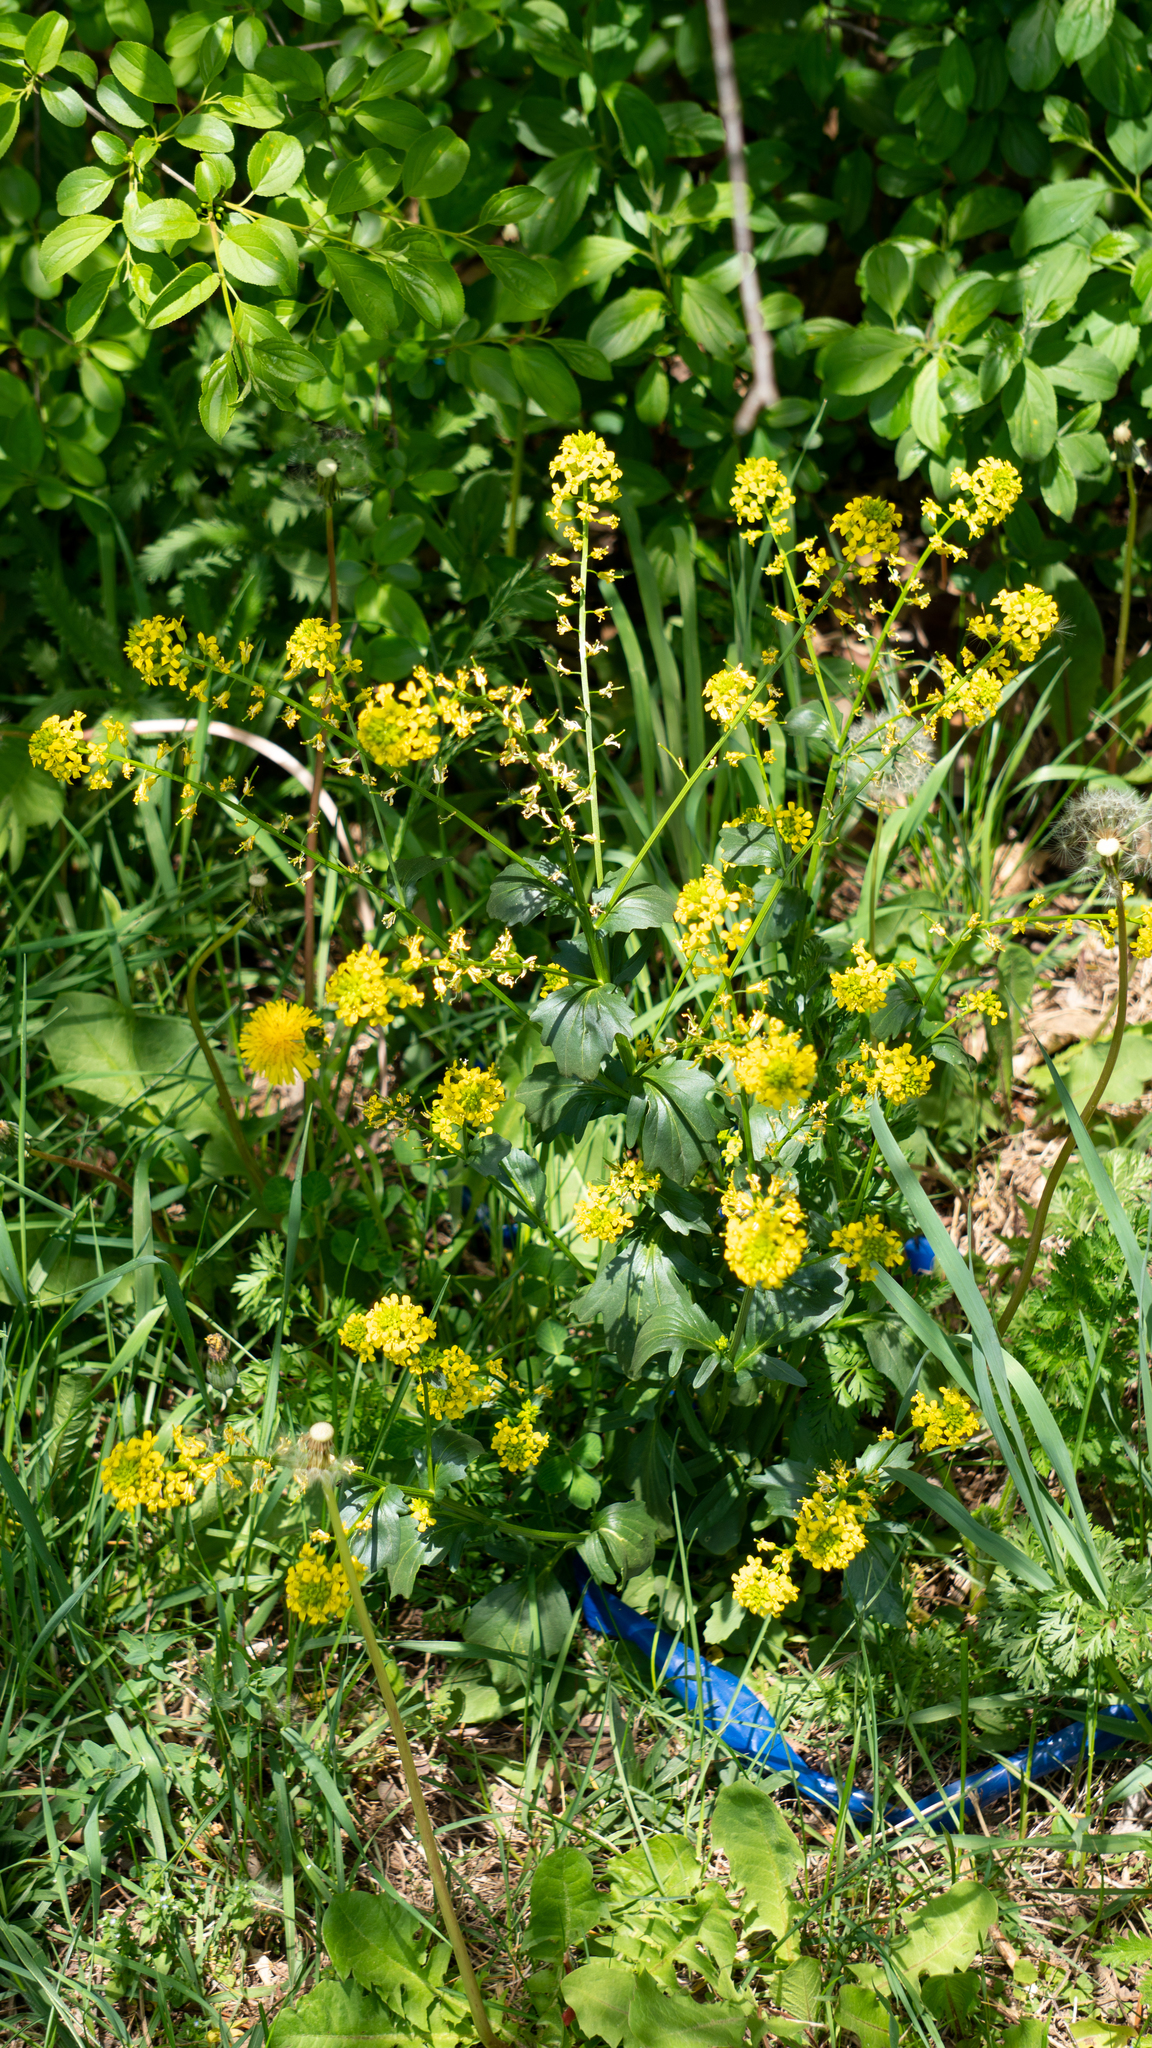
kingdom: Plantae
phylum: Tracheophyta
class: Magnoliopsida
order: Brassicales
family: Brassicaceae
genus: Barbarea
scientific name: Barbarea vulgaris
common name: Cressy-greens
